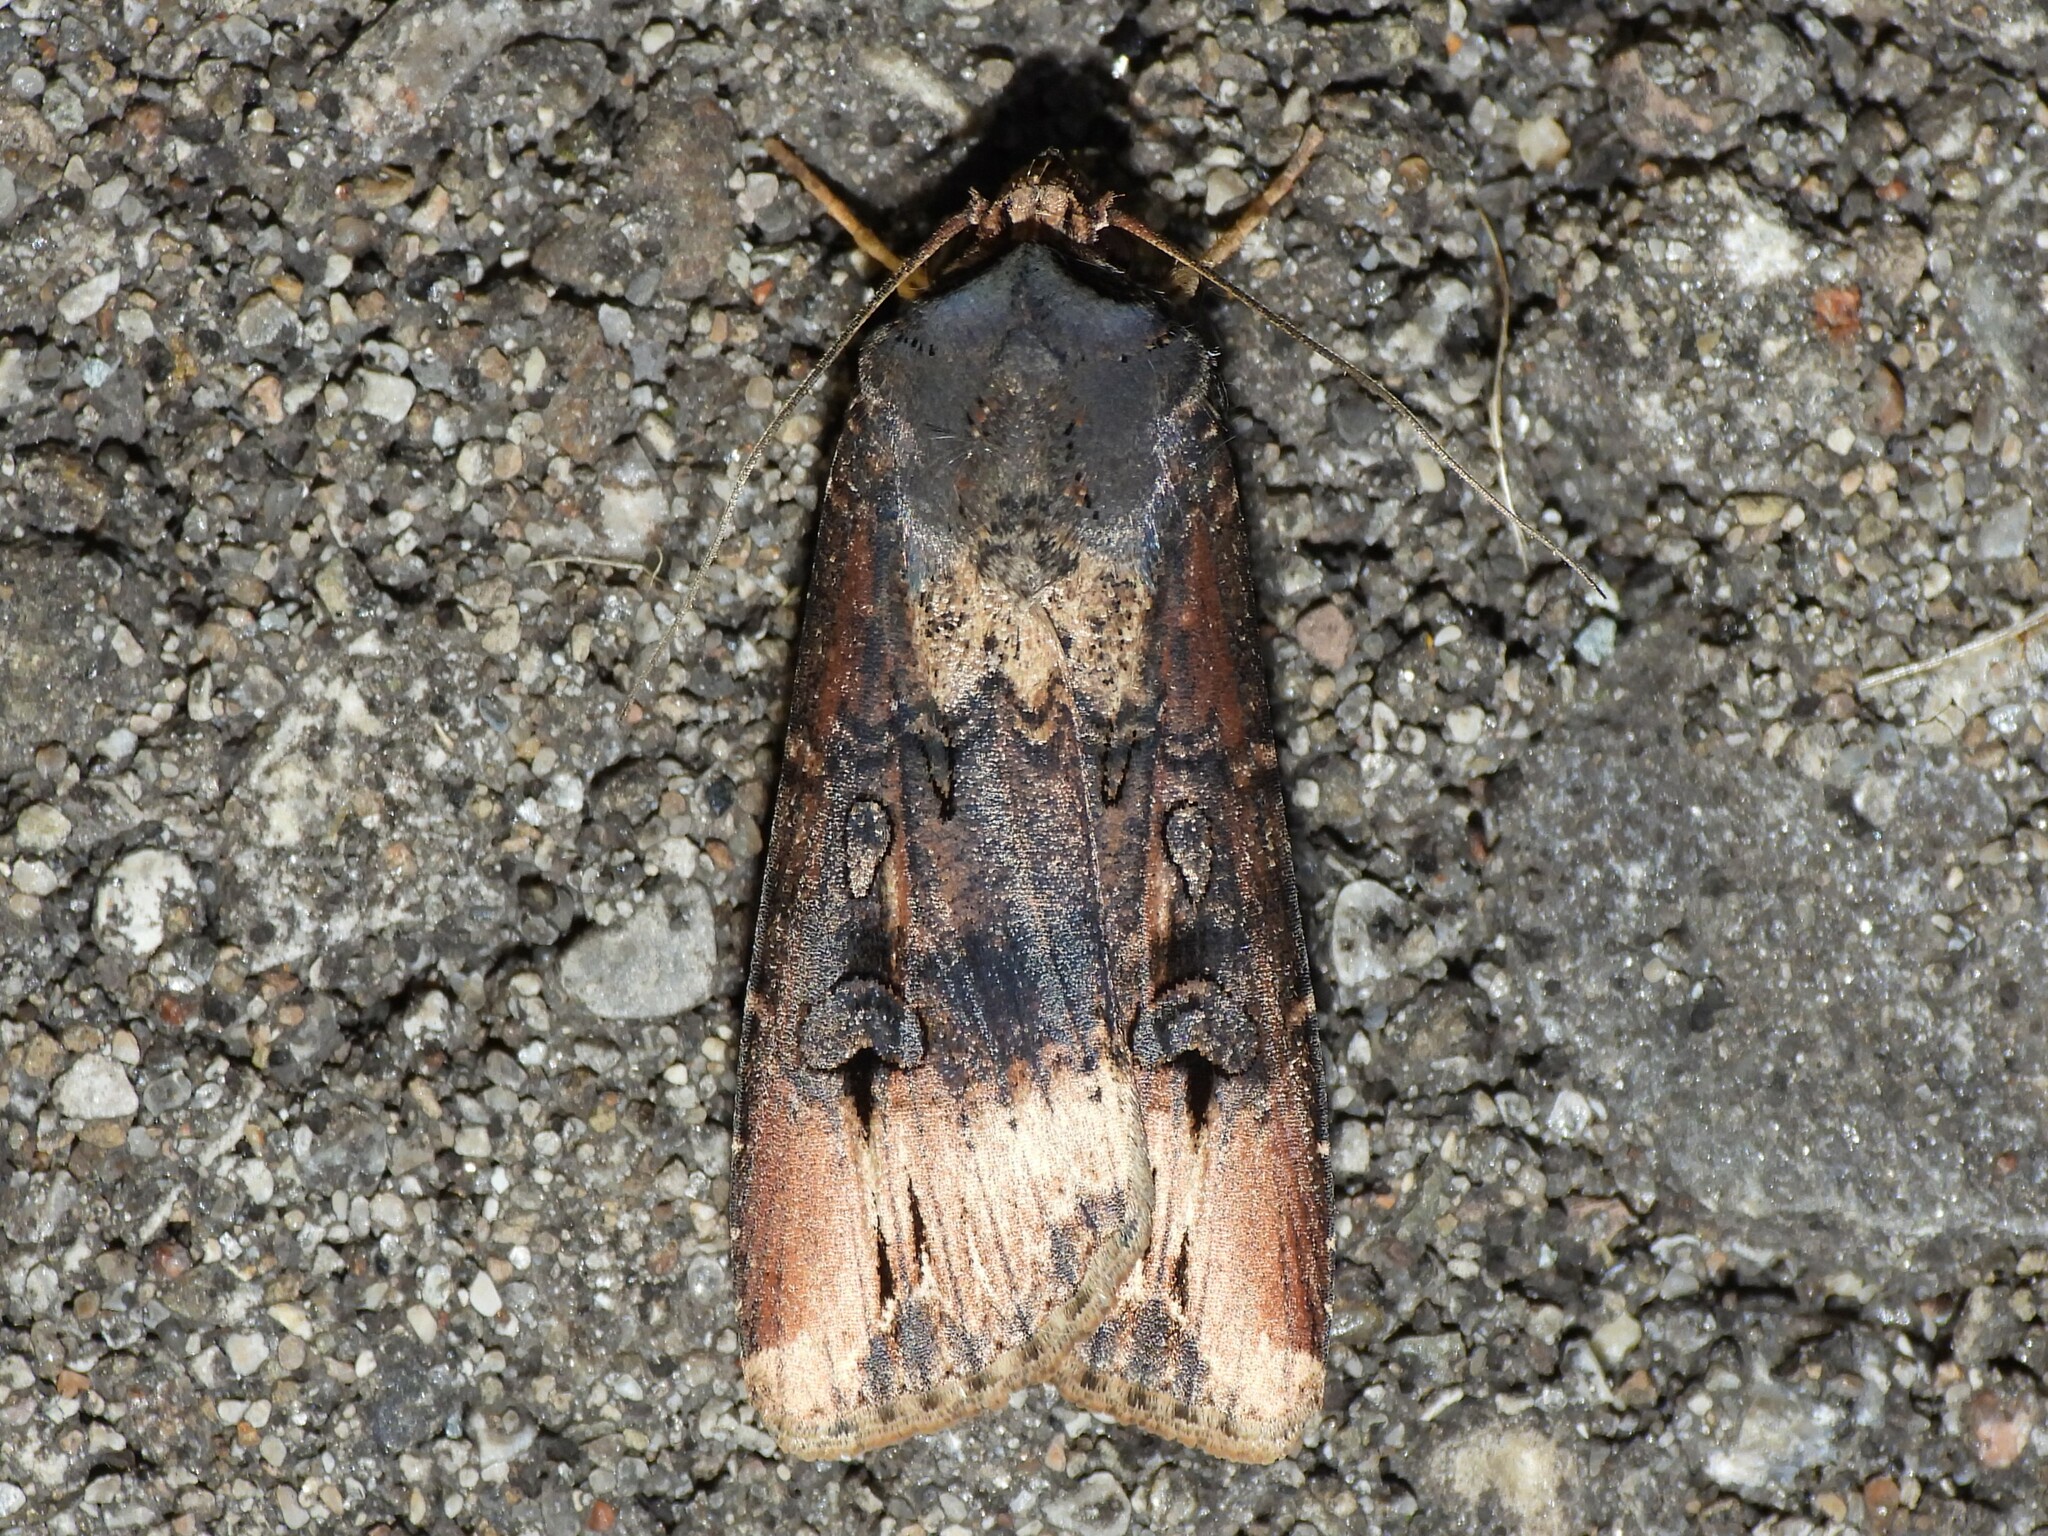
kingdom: Animalia
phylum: Arthropoda
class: Insecta
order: Lepidoptera
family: Noctuidae
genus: Agrotis
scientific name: Agrotis ipsilon
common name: Dark sword-grass
